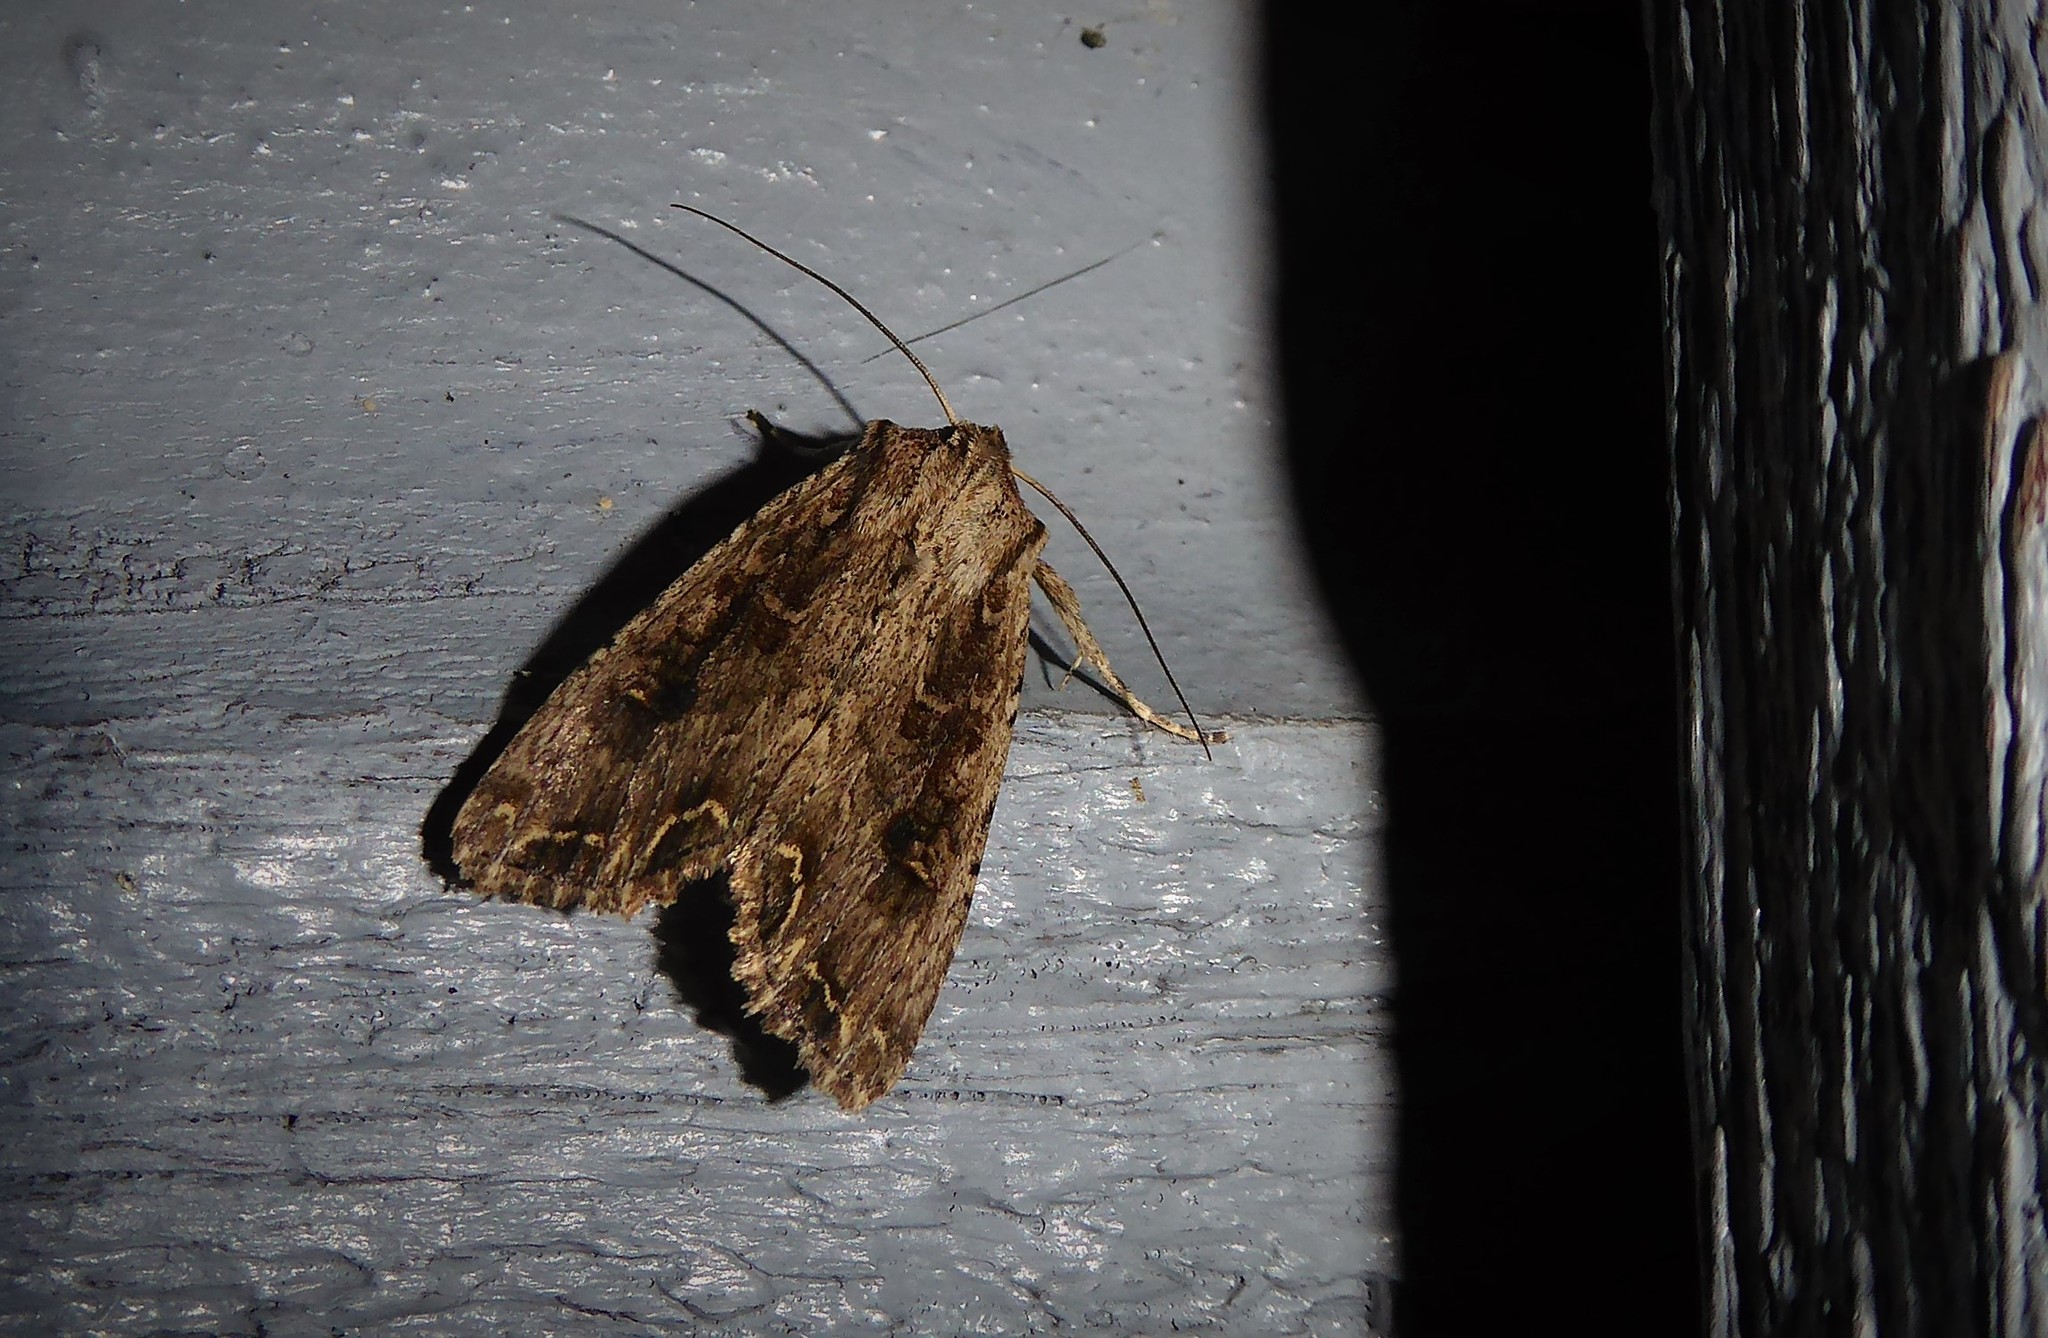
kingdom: Animalia
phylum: Arthropoda
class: Insecta
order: Lepidoptera
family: Noctuidae
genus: Ichneutica
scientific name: Ichneutica lignana
